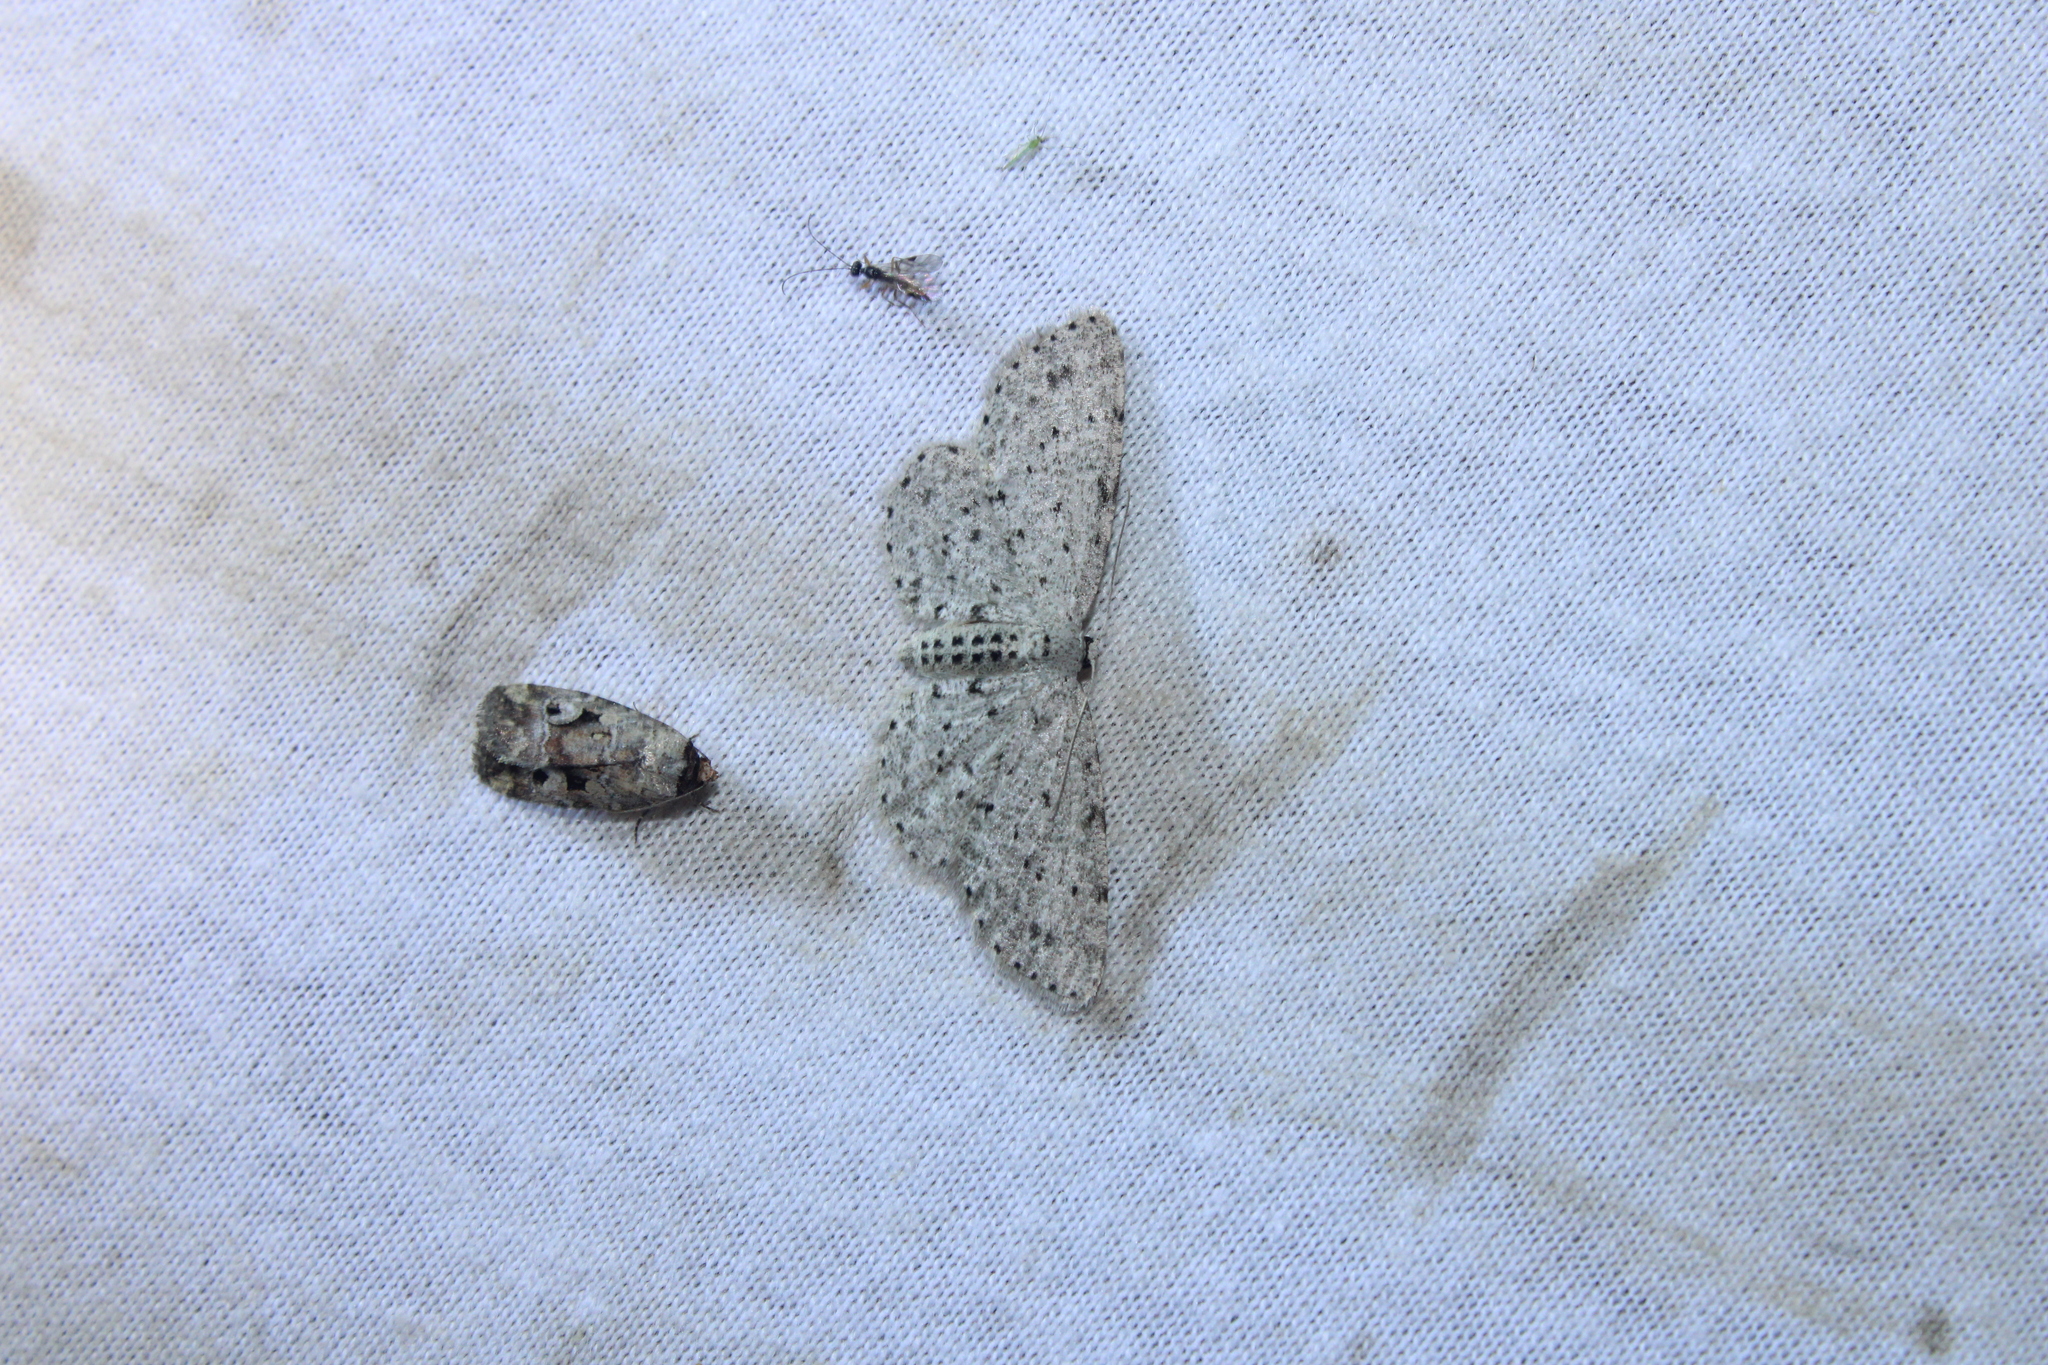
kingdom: Animalia
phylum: Arthropoda
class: Insecta
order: Lepidoptera
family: Geometridae
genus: Glena
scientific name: Glena cribrataria
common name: Dotted gray
